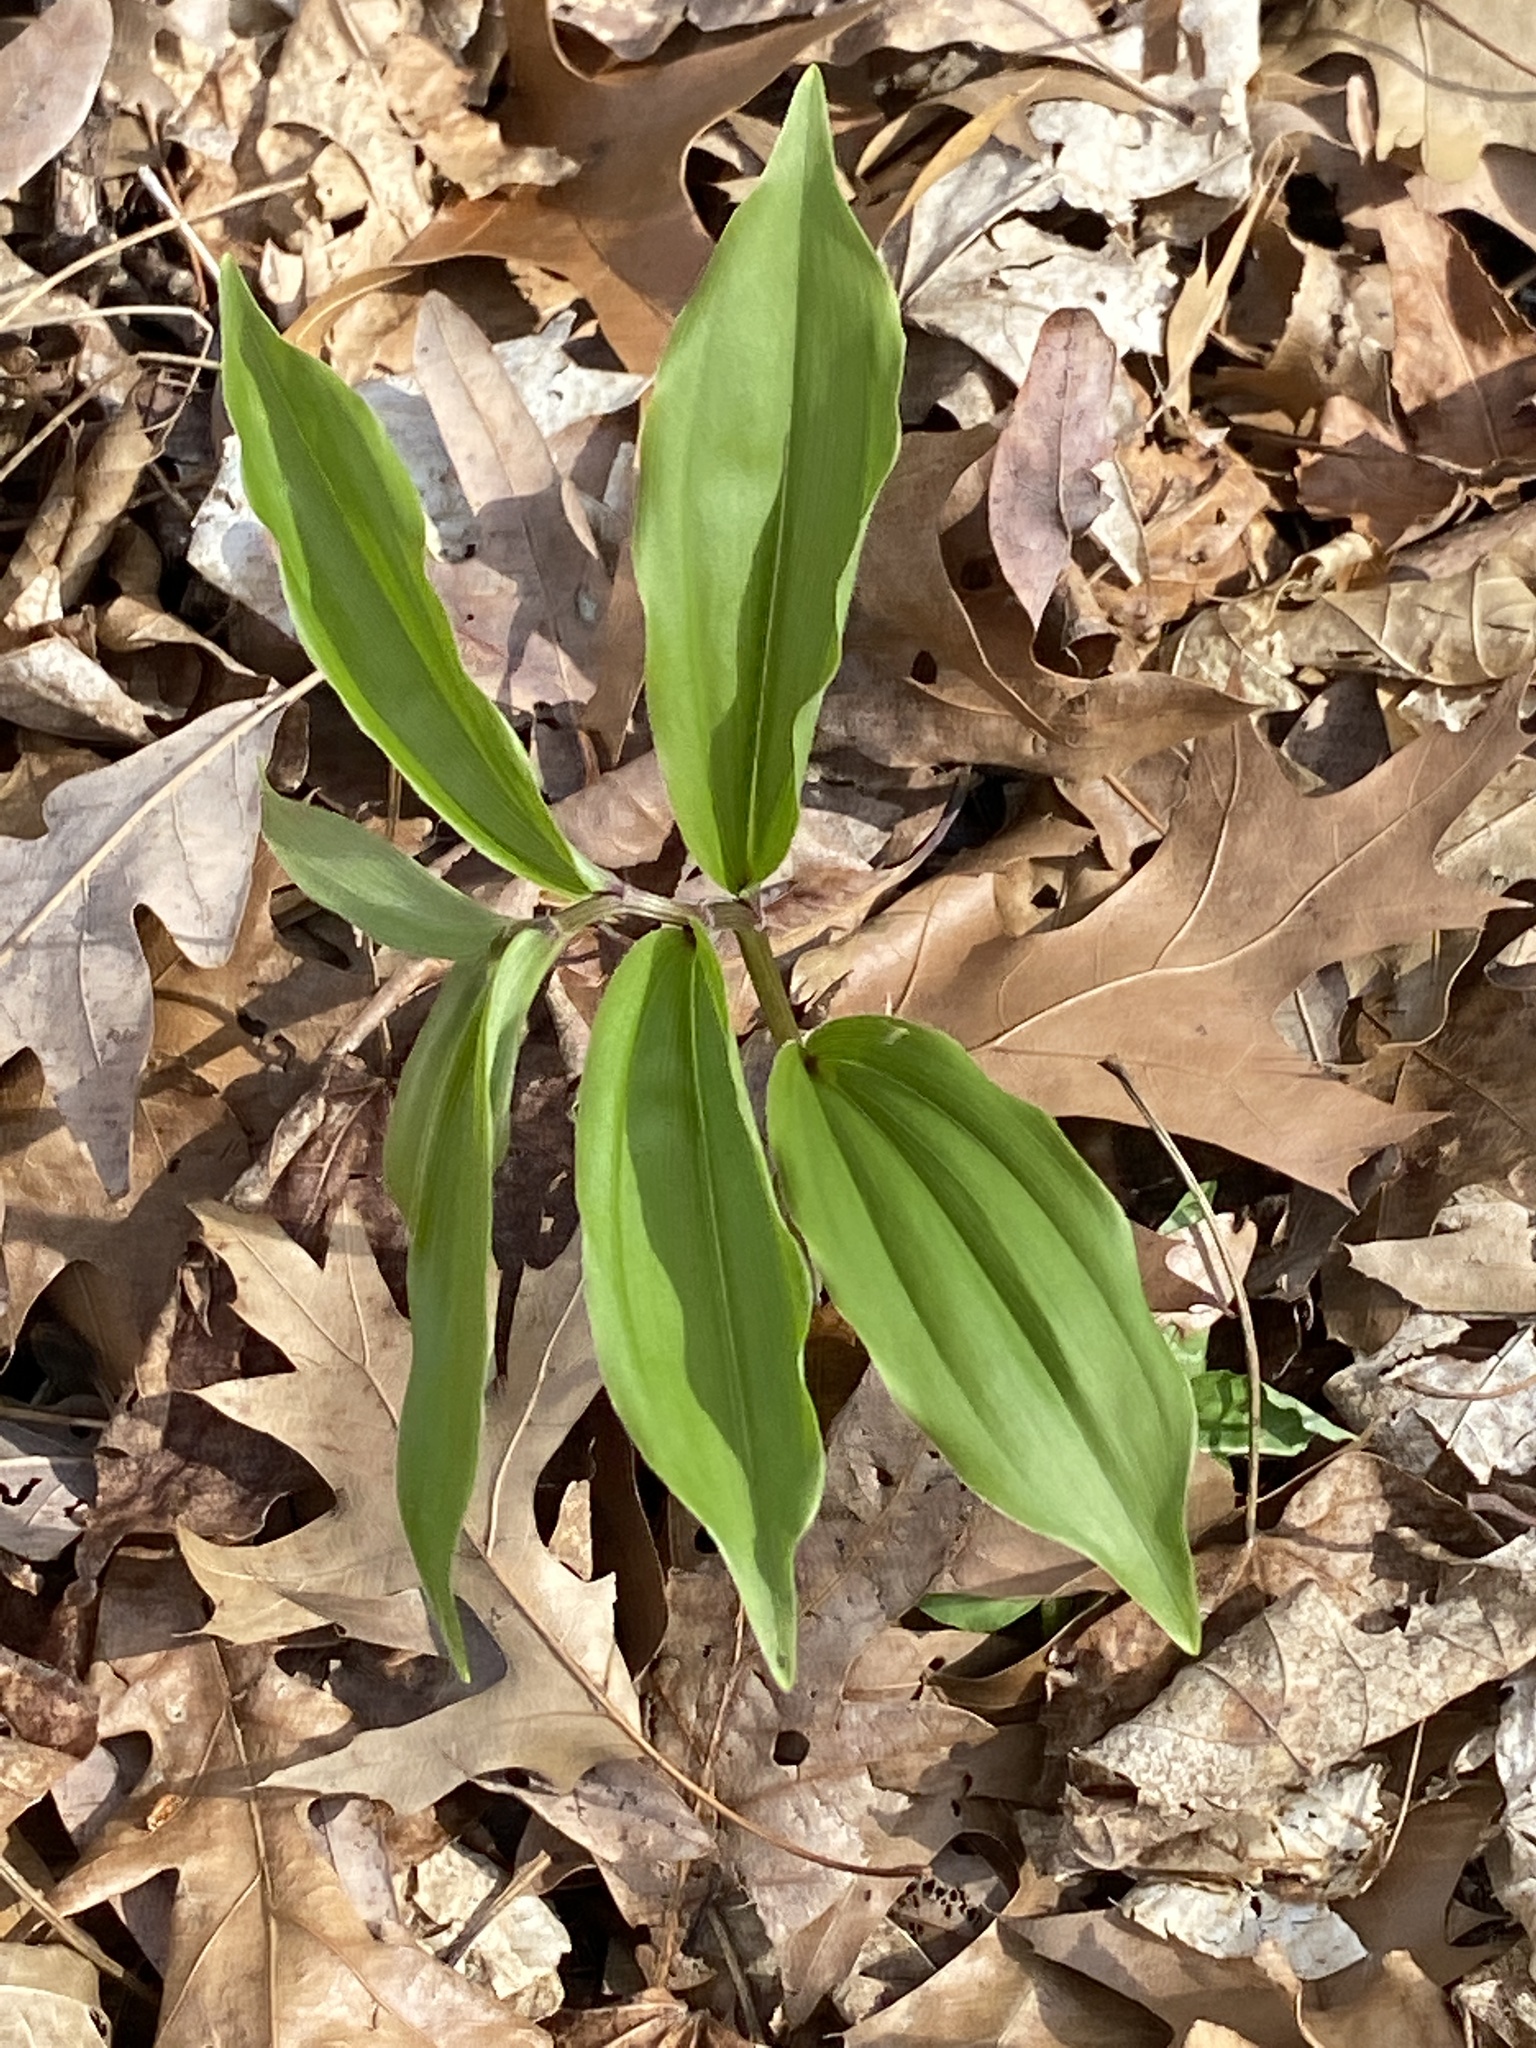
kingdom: Plantae
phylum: Tracheophyta
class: Liliopsida
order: Asparagales
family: Asparagaceae
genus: Maianthemum
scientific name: Maianthemum racemosum
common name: False spikenard
